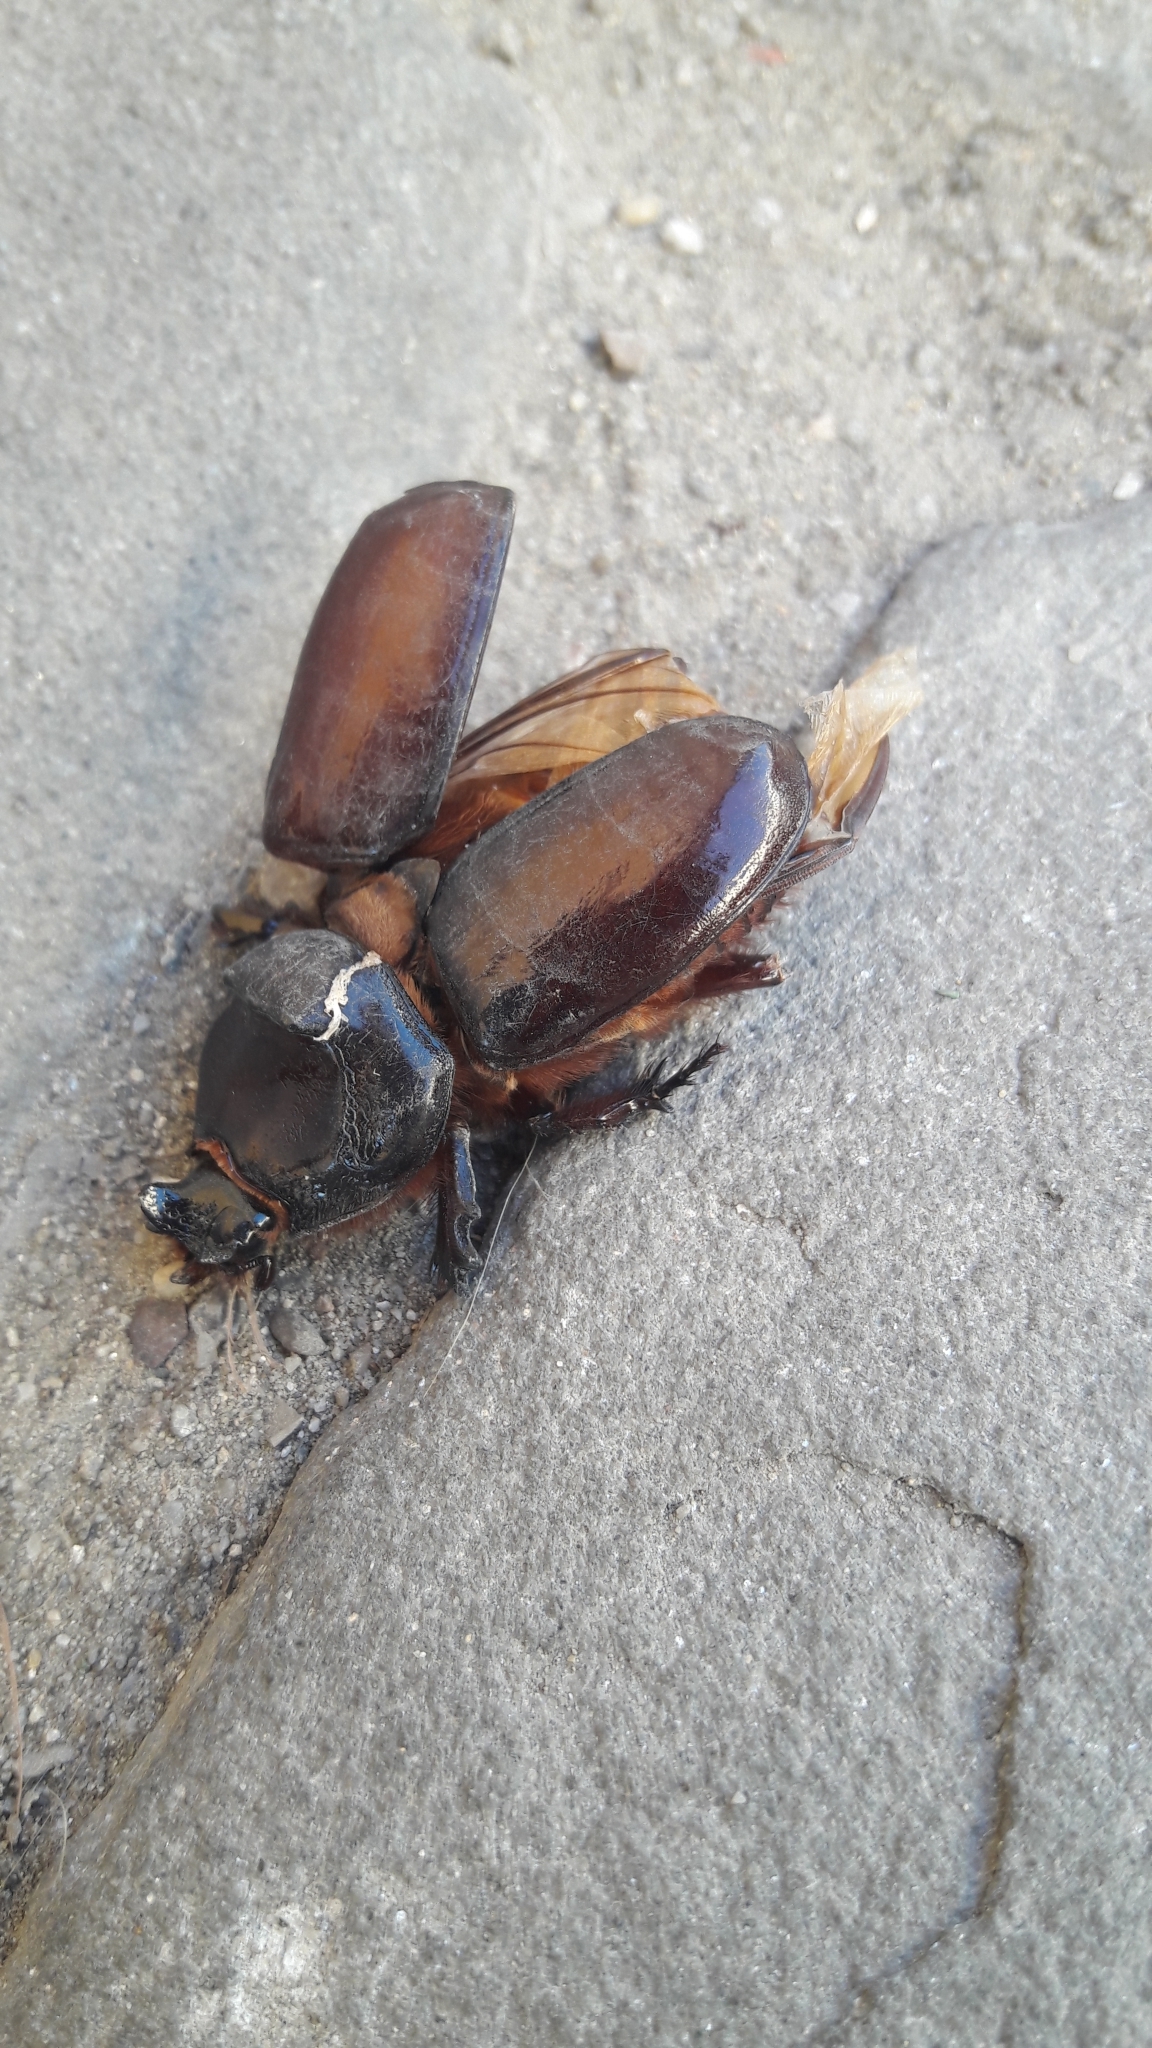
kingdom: Animalia
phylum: Arthropoda
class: Insecta
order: Coleoptera
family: Scarabaeidae
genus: Oryctes
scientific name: Oryctes nasicornis
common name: European rhinoceros beetle
